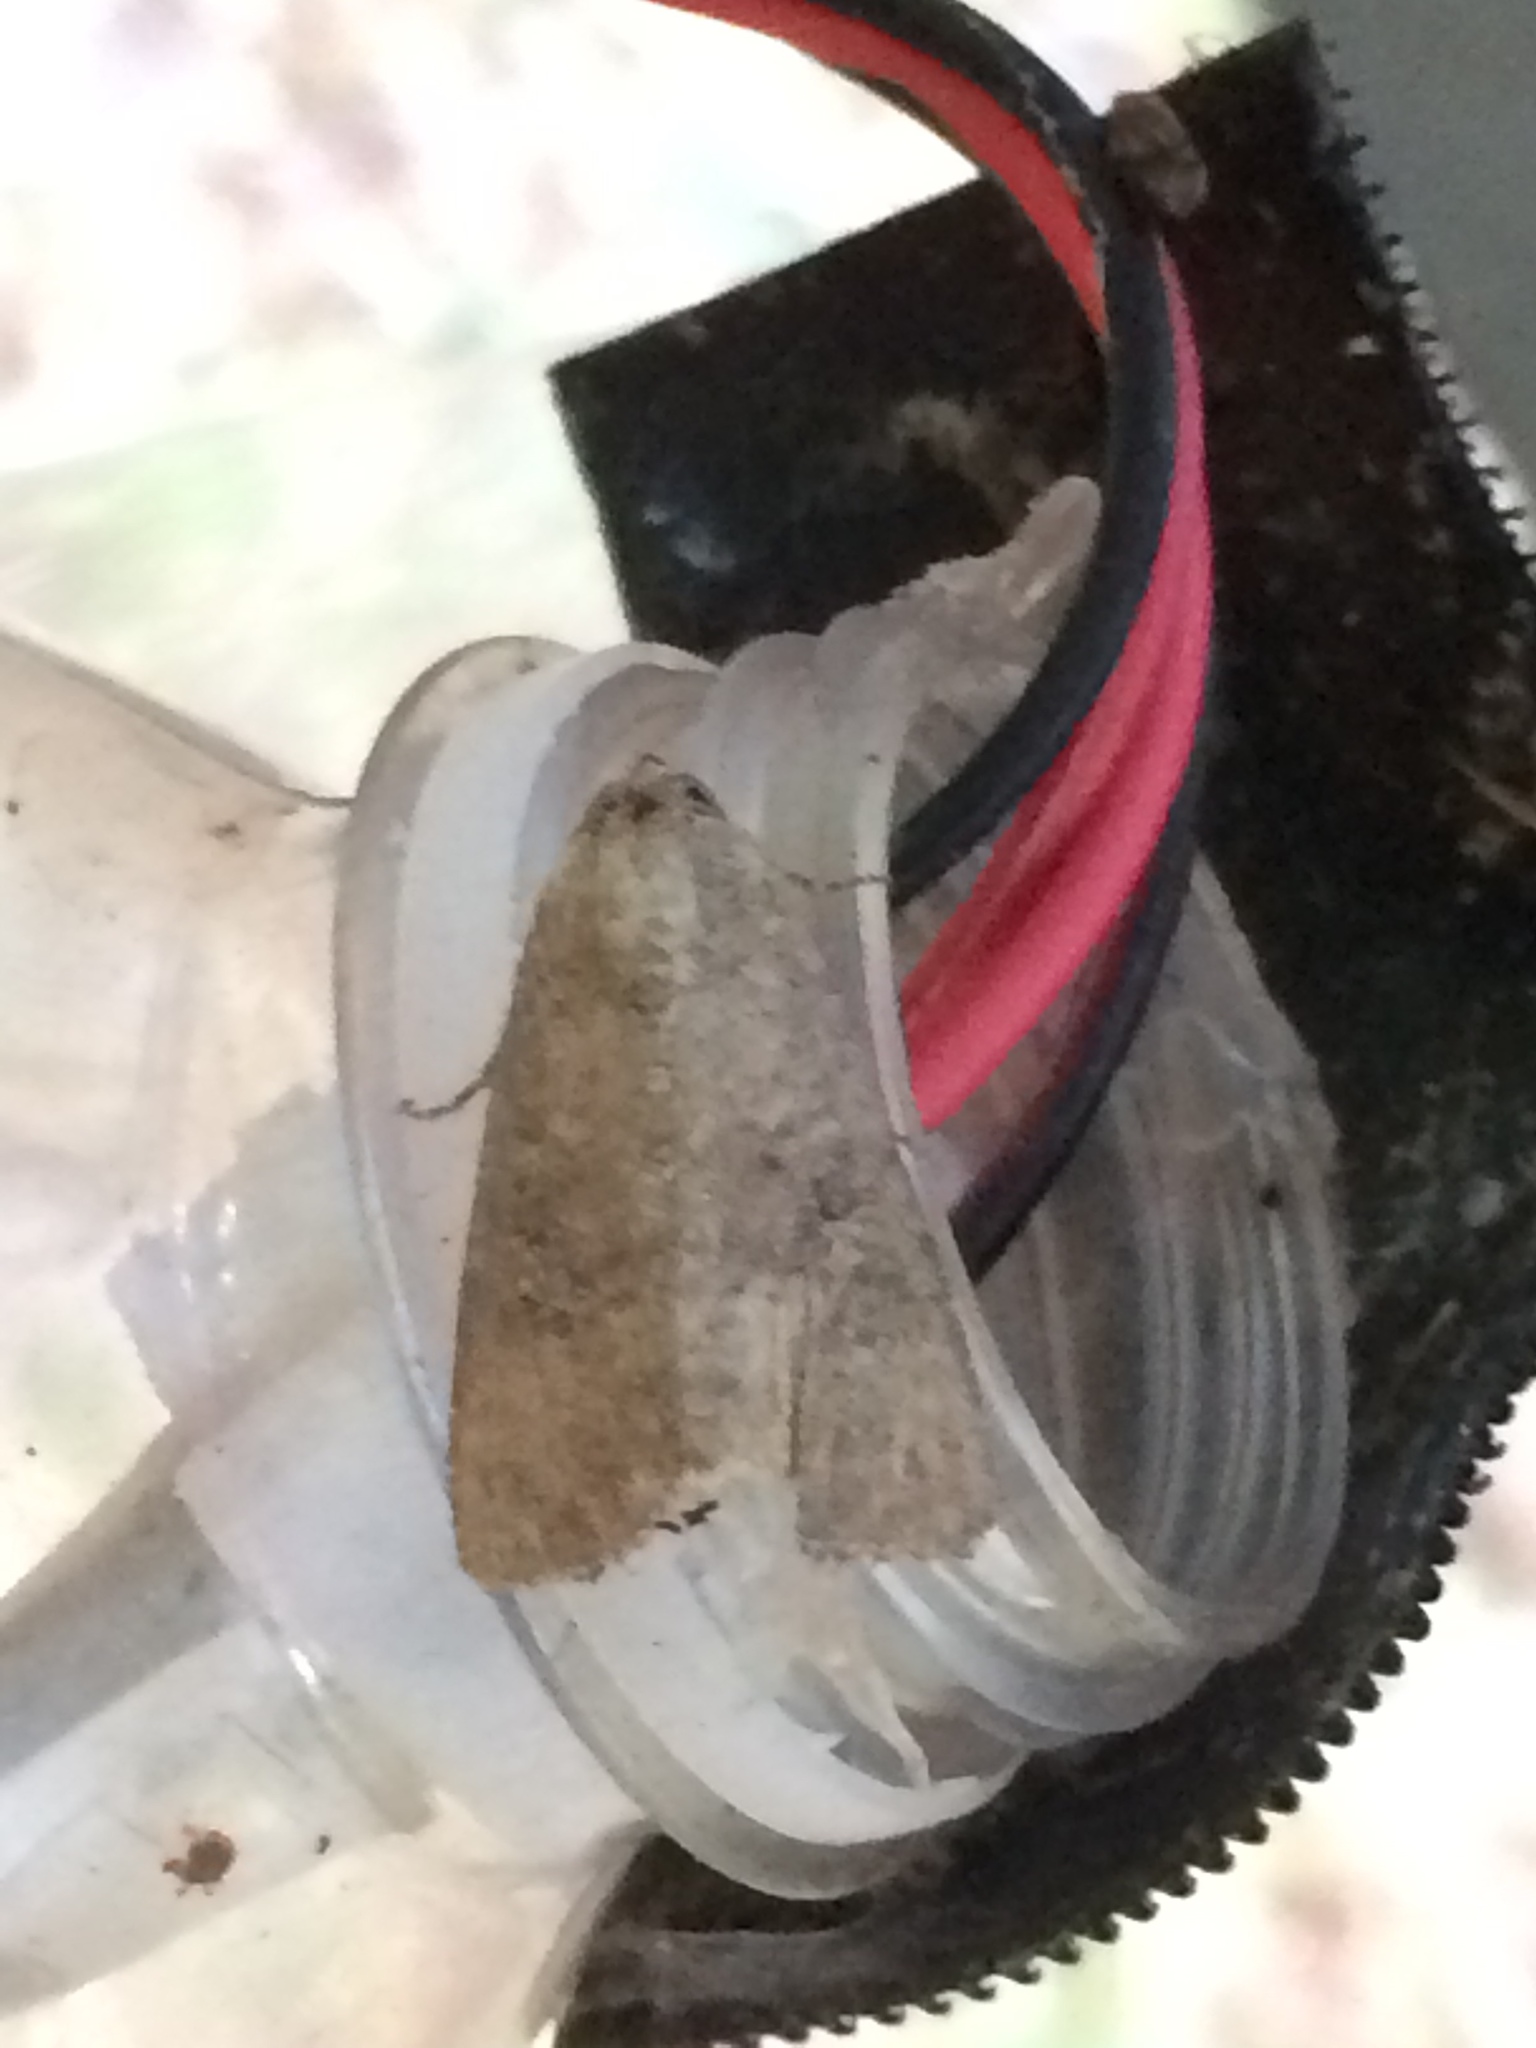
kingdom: Animalia
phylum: Arthropoda
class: Insecta
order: Lepidoptera
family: Noctuidae
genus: Condica
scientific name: Condica sutor
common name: Cobbler moth
